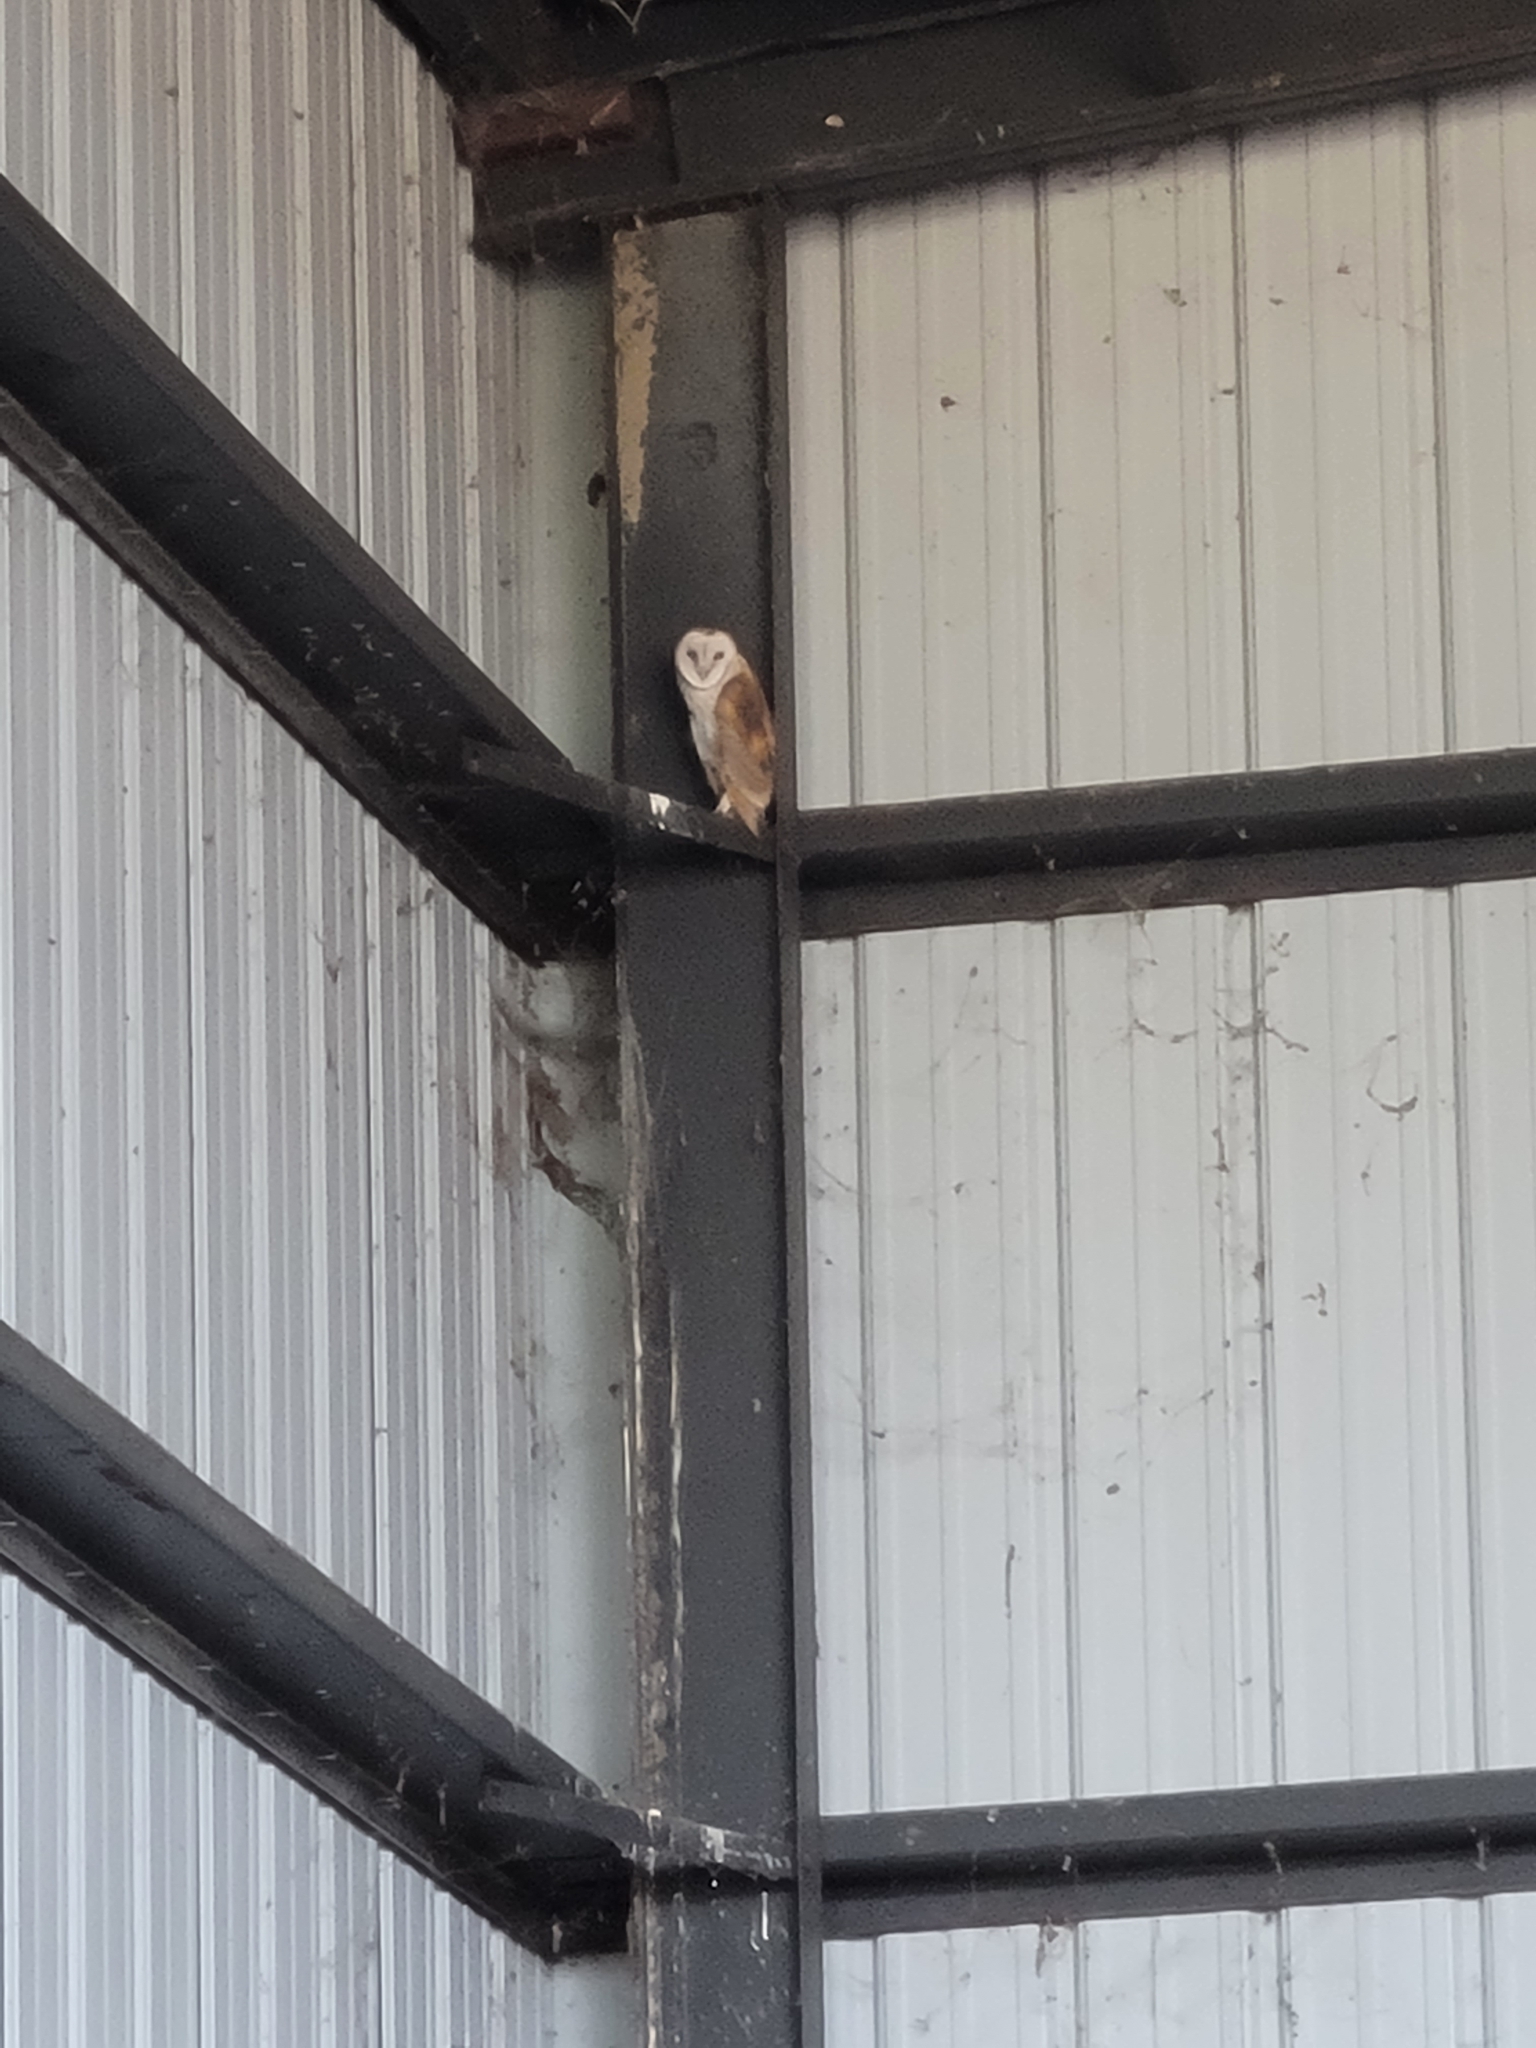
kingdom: Animalia
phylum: Chordata
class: Aves
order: Strigiformes
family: Tytonidae
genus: Tyto
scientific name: Tyto alba
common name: Barn owl
